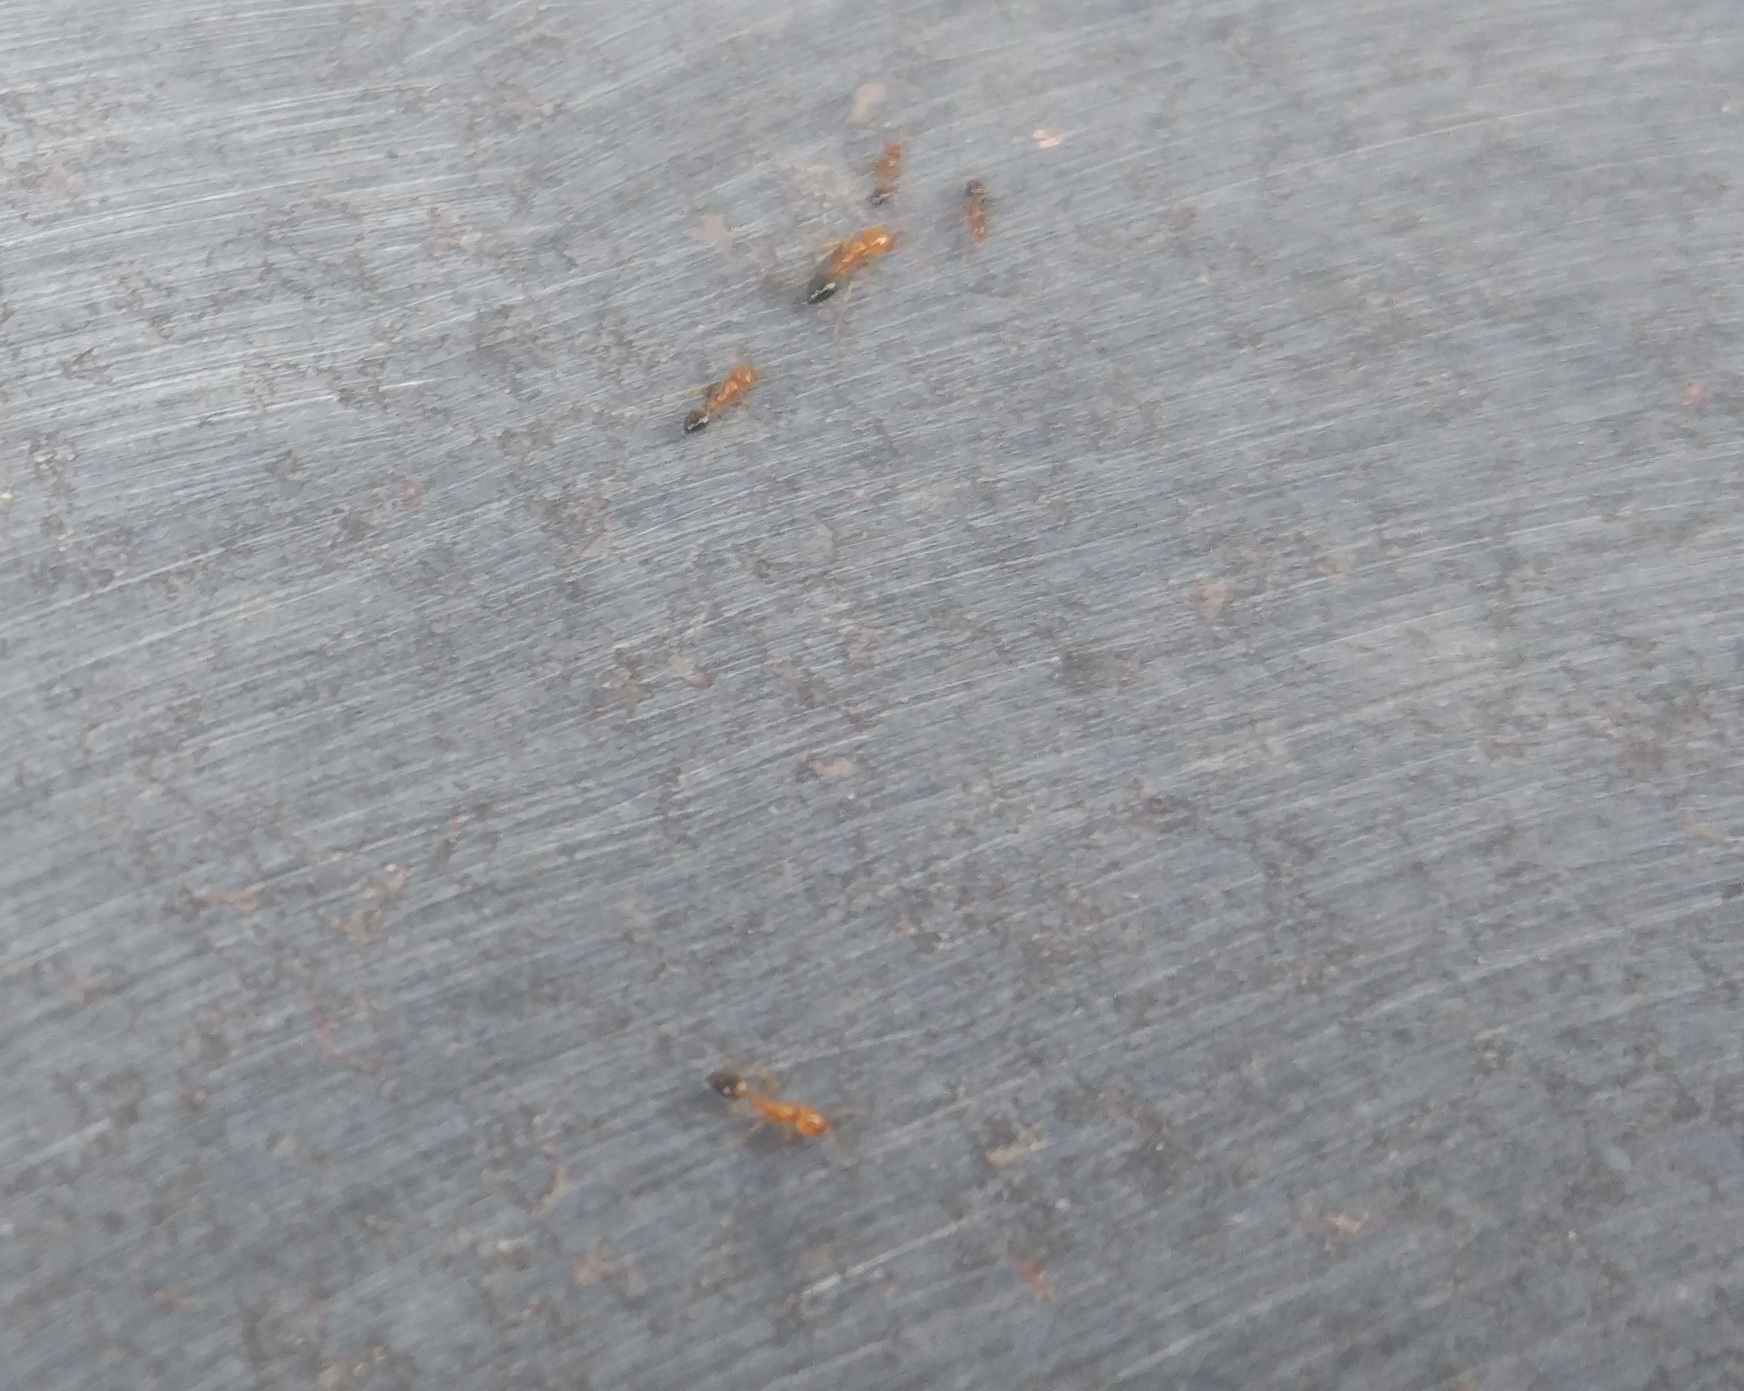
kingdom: Animalia
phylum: Arthropoda
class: Insecta
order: Hymenoptera
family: Formicidae
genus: Monomorium
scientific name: Monomorium destructor
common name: Destructive trailing ant
